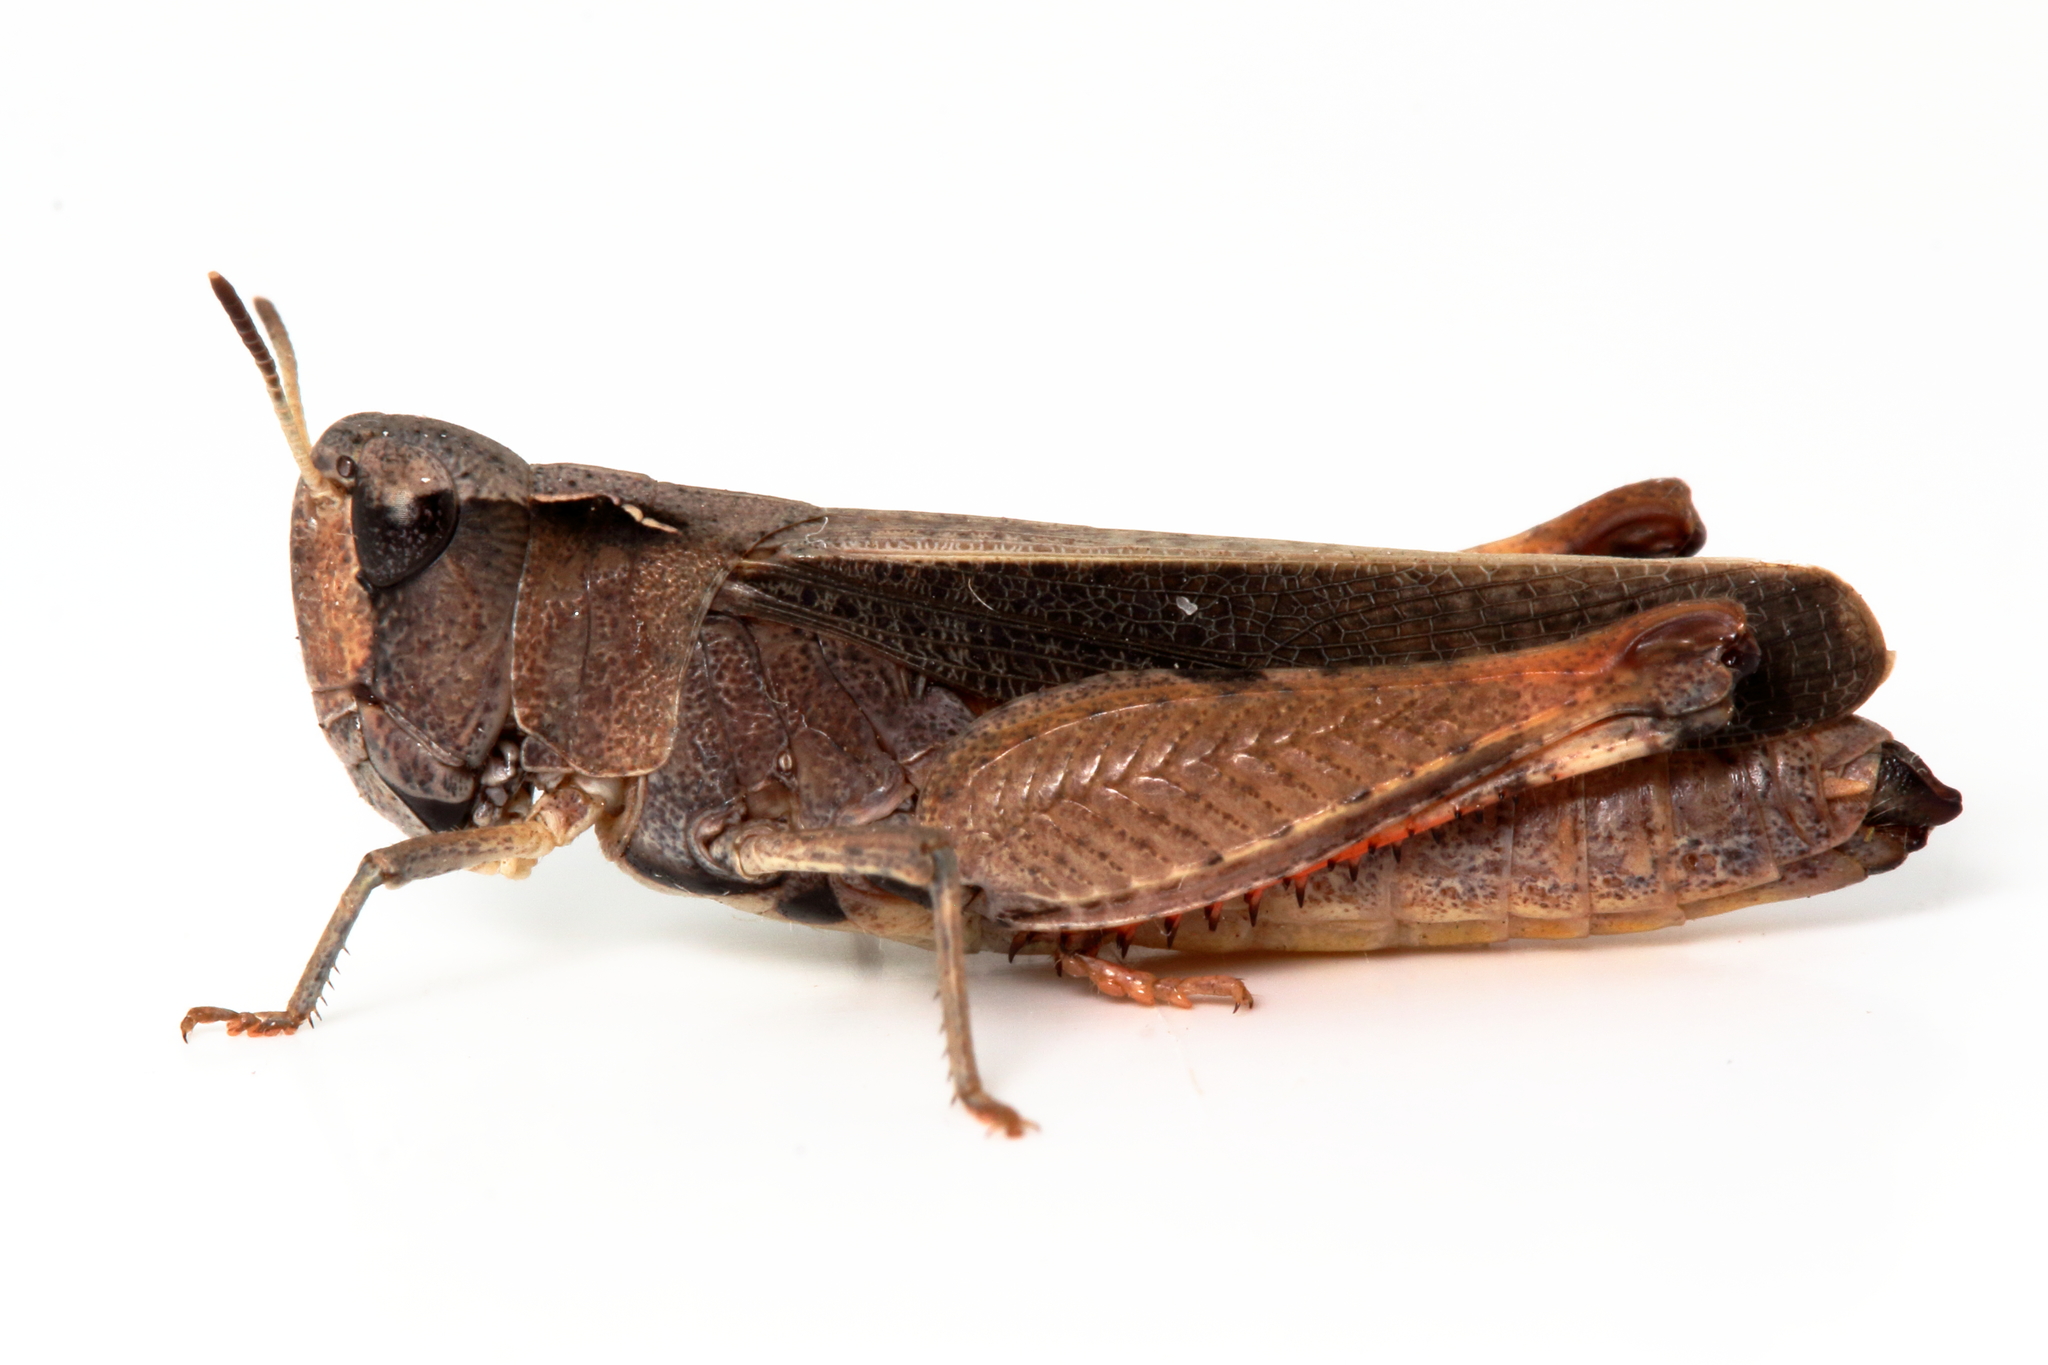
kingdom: Animalia
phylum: Arthropoda
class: Insecta
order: Orthoptera
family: Acrididae
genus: Cryptobothrus
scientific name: Cryptobothrus chrysophorus
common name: Golden bandwing
